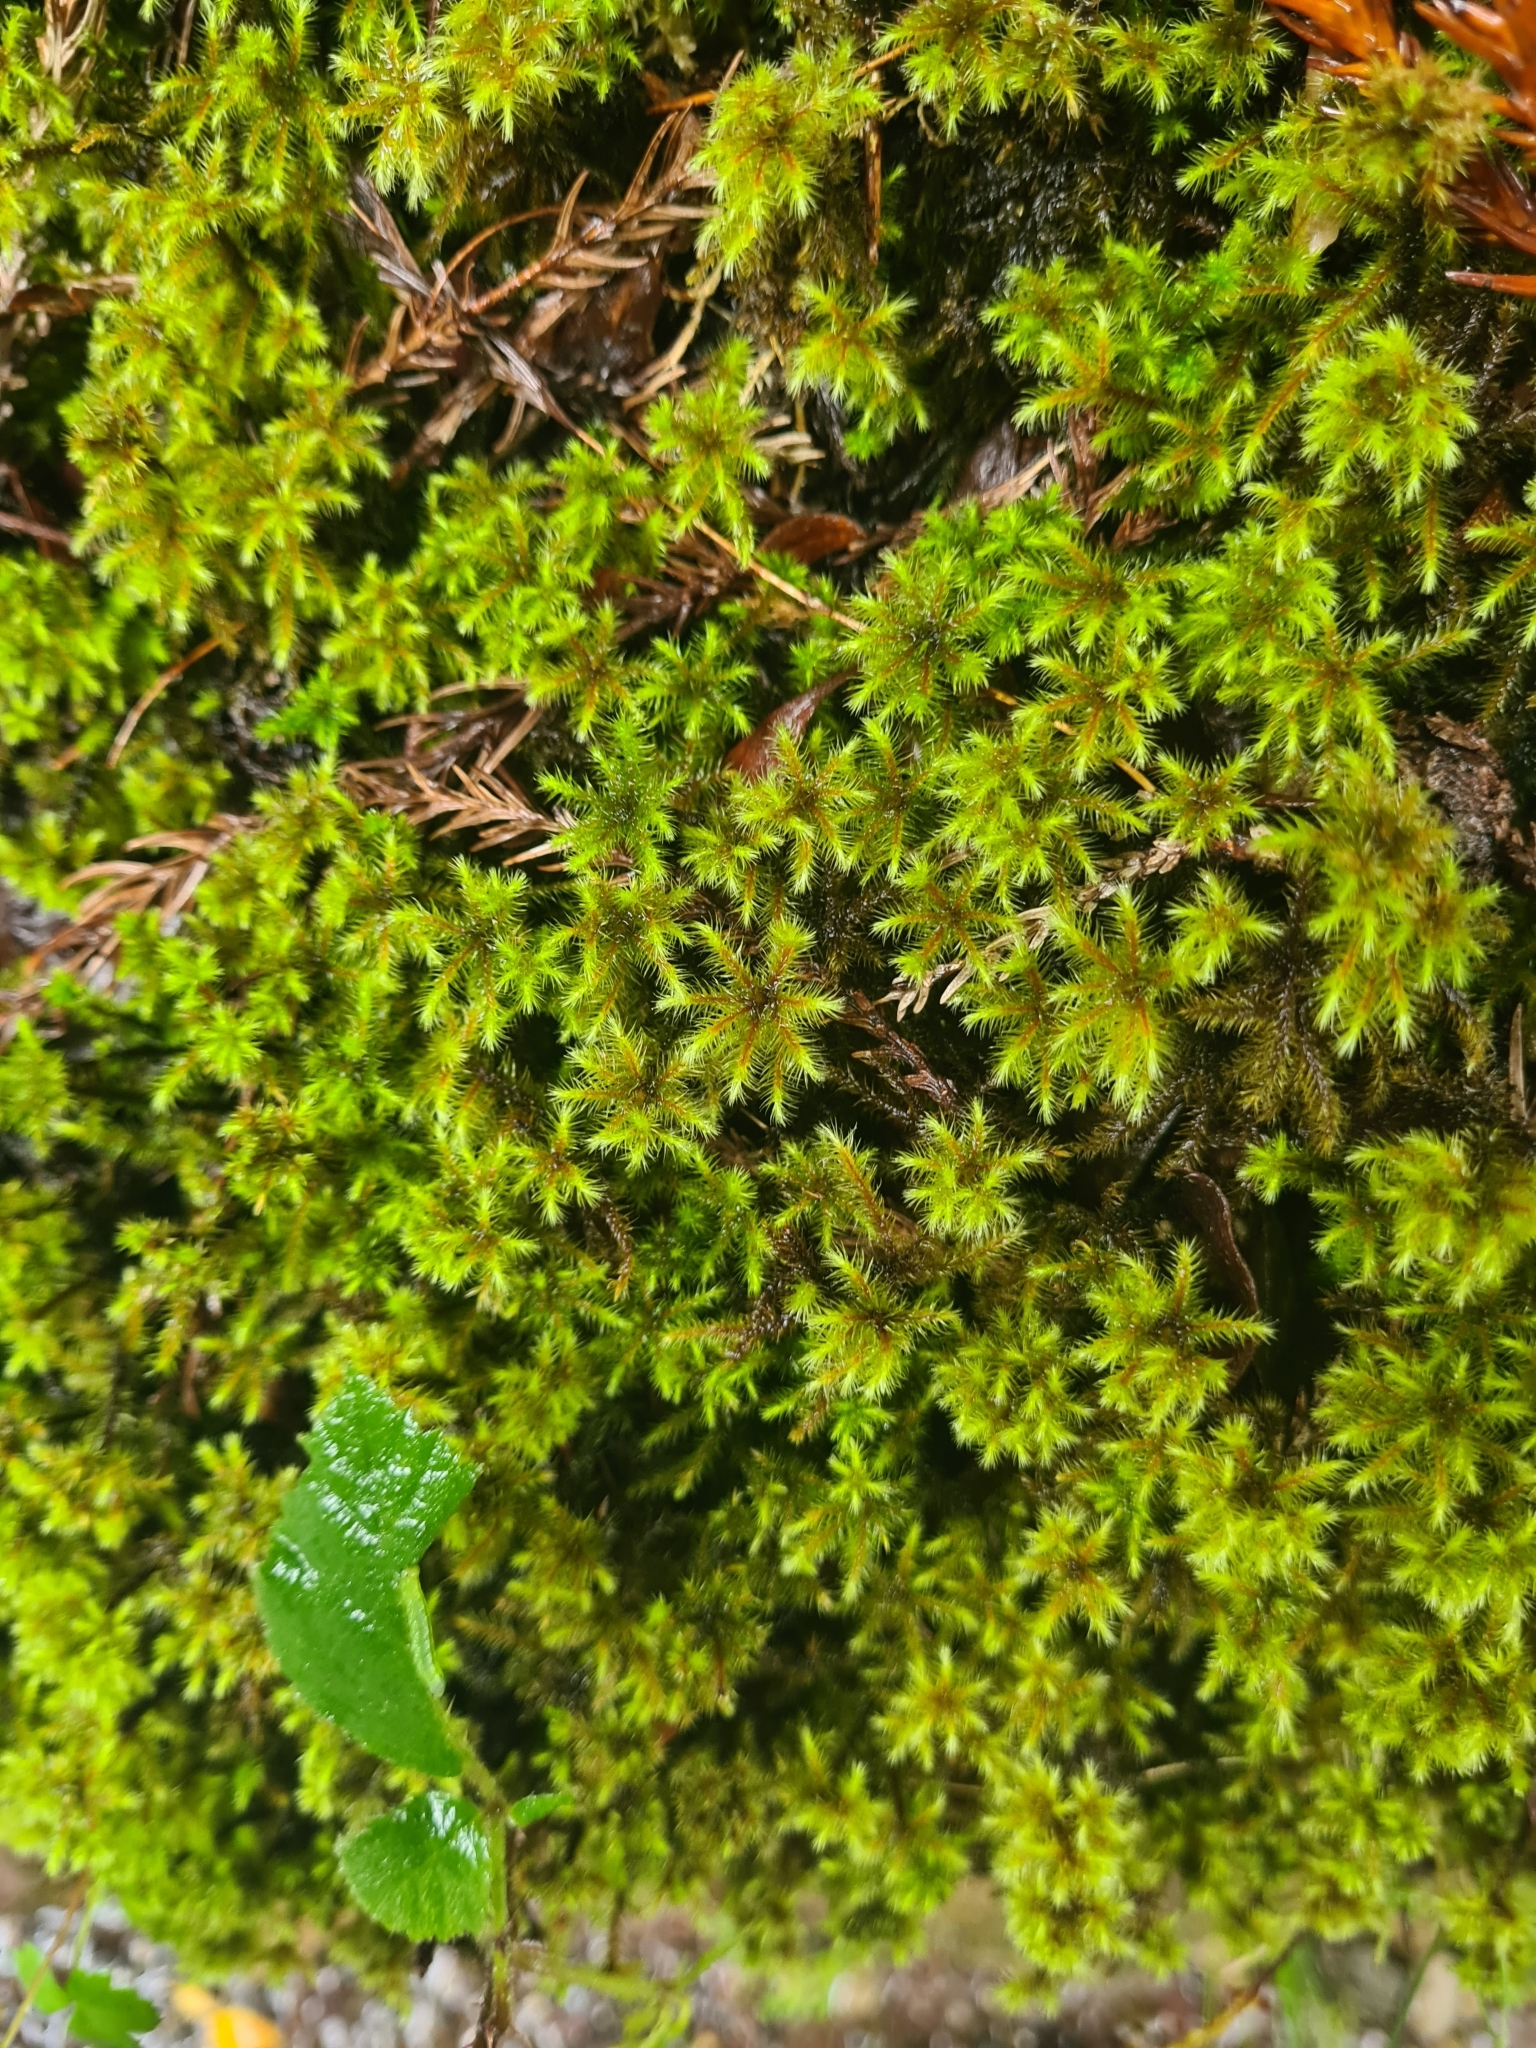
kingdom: Plantae
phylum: Bryophyta
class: Bryopsida
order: Bartramiales
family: Bartramiaceae
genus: Breutelia
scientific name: Breutelia azorica
